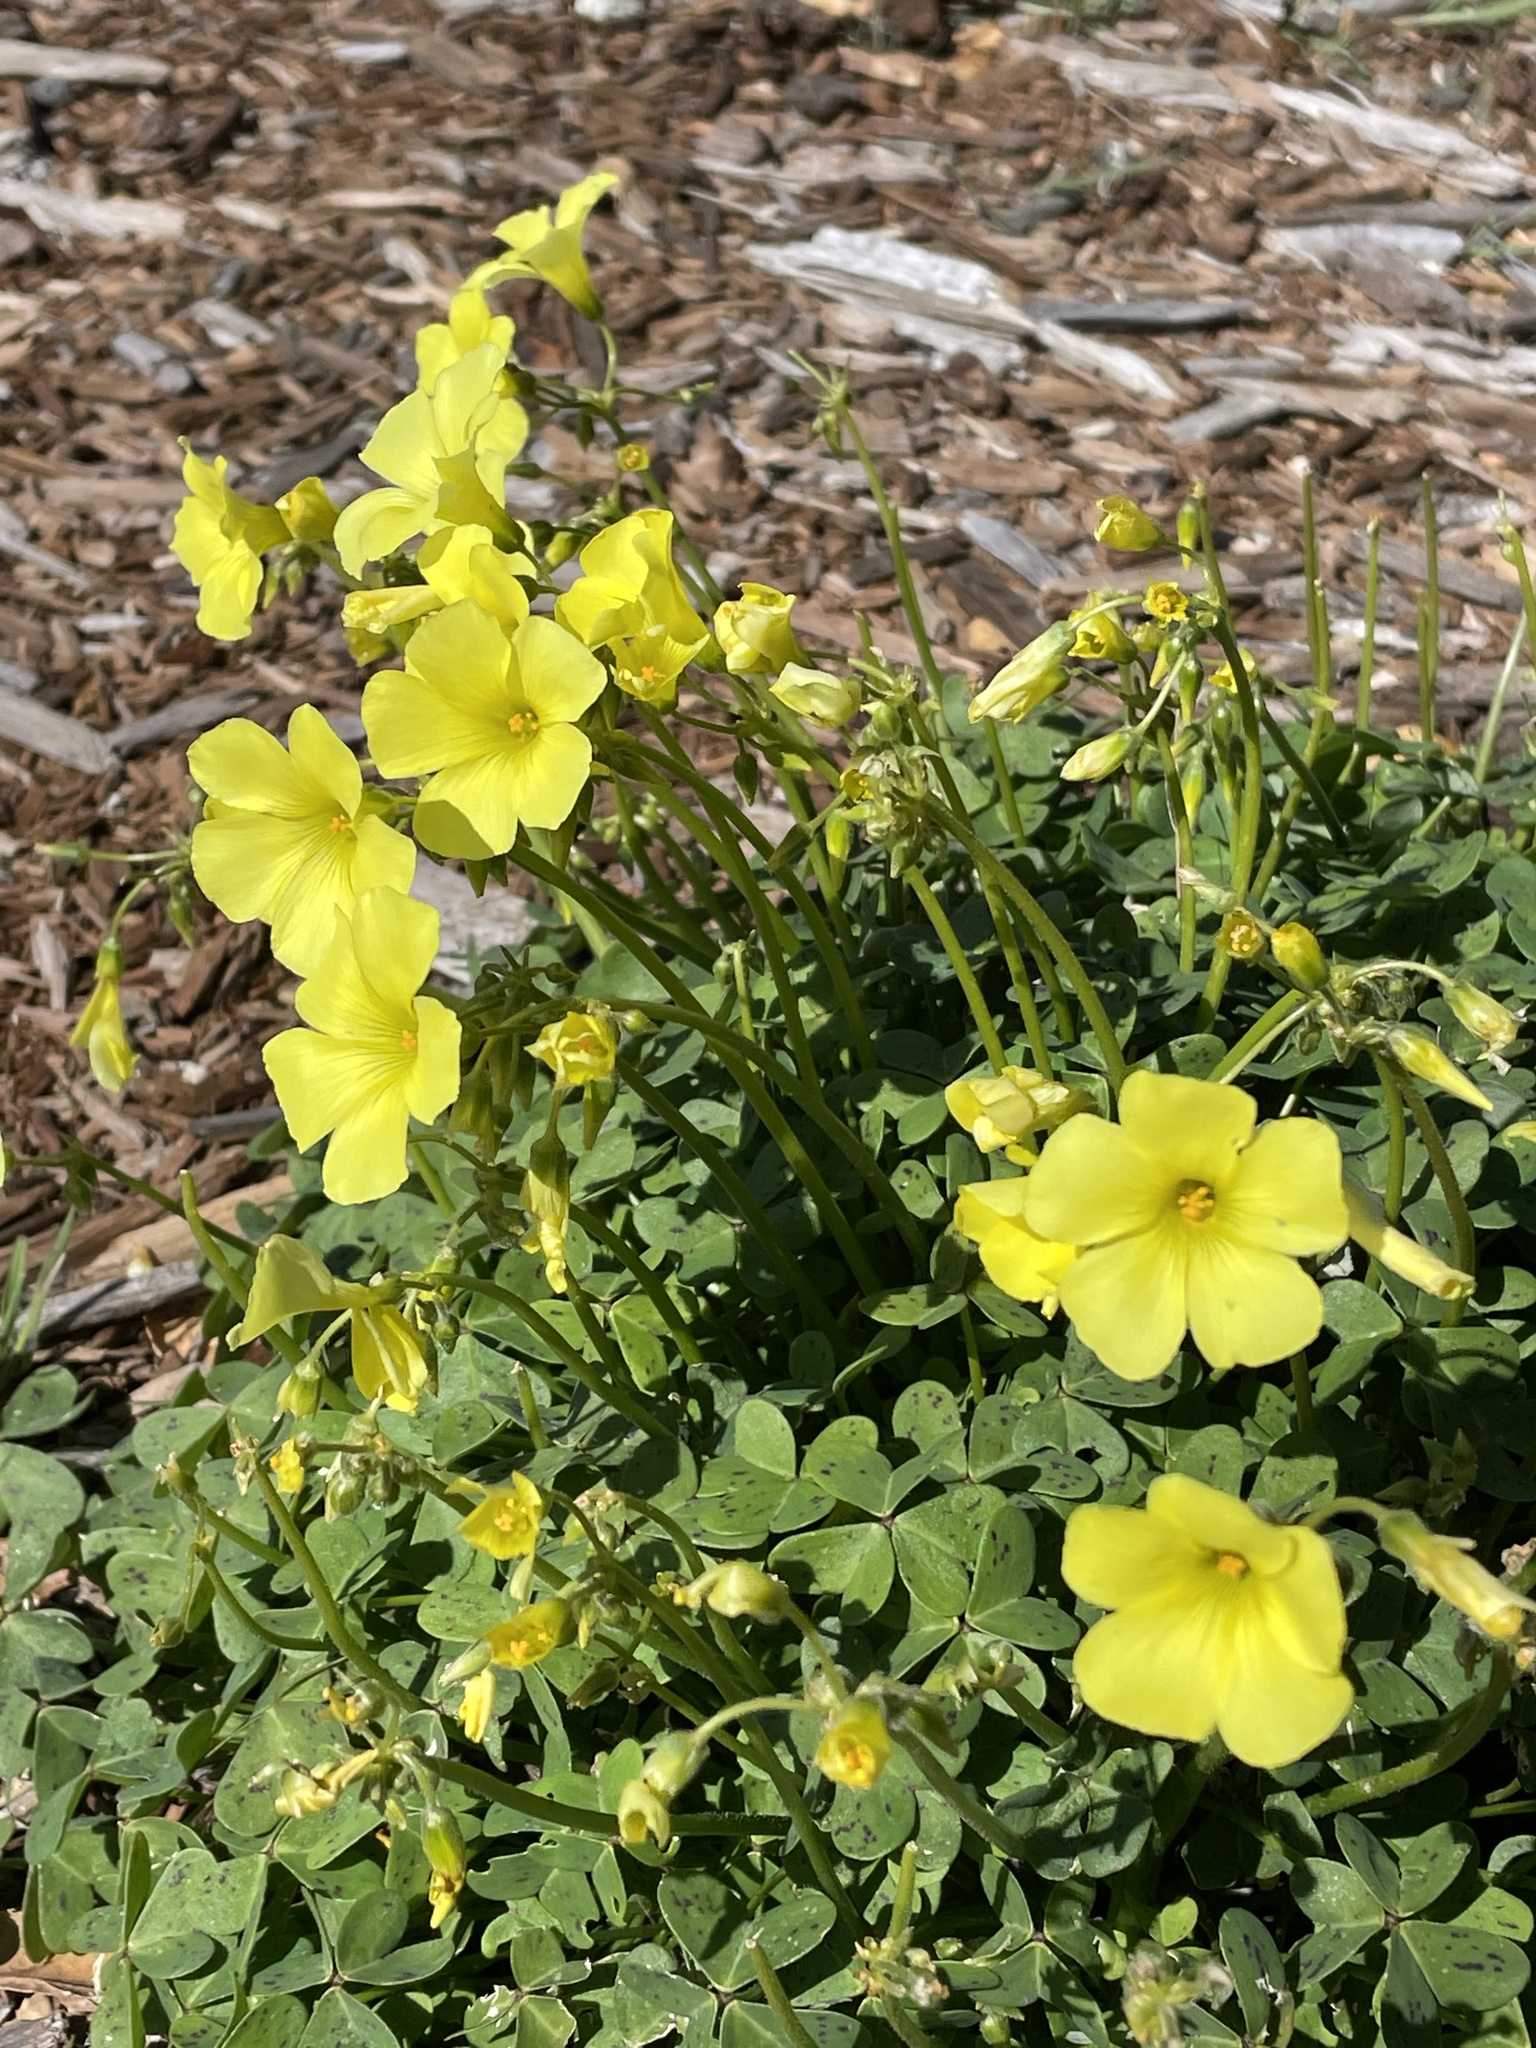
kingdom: Plantae
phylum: Tracheophyta
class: Magnoliopsida
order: Oxalidales
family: Oxalidaceae
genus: Oxalis
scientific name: Oxalis pes-caprae
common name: Bermuda-buttercup
